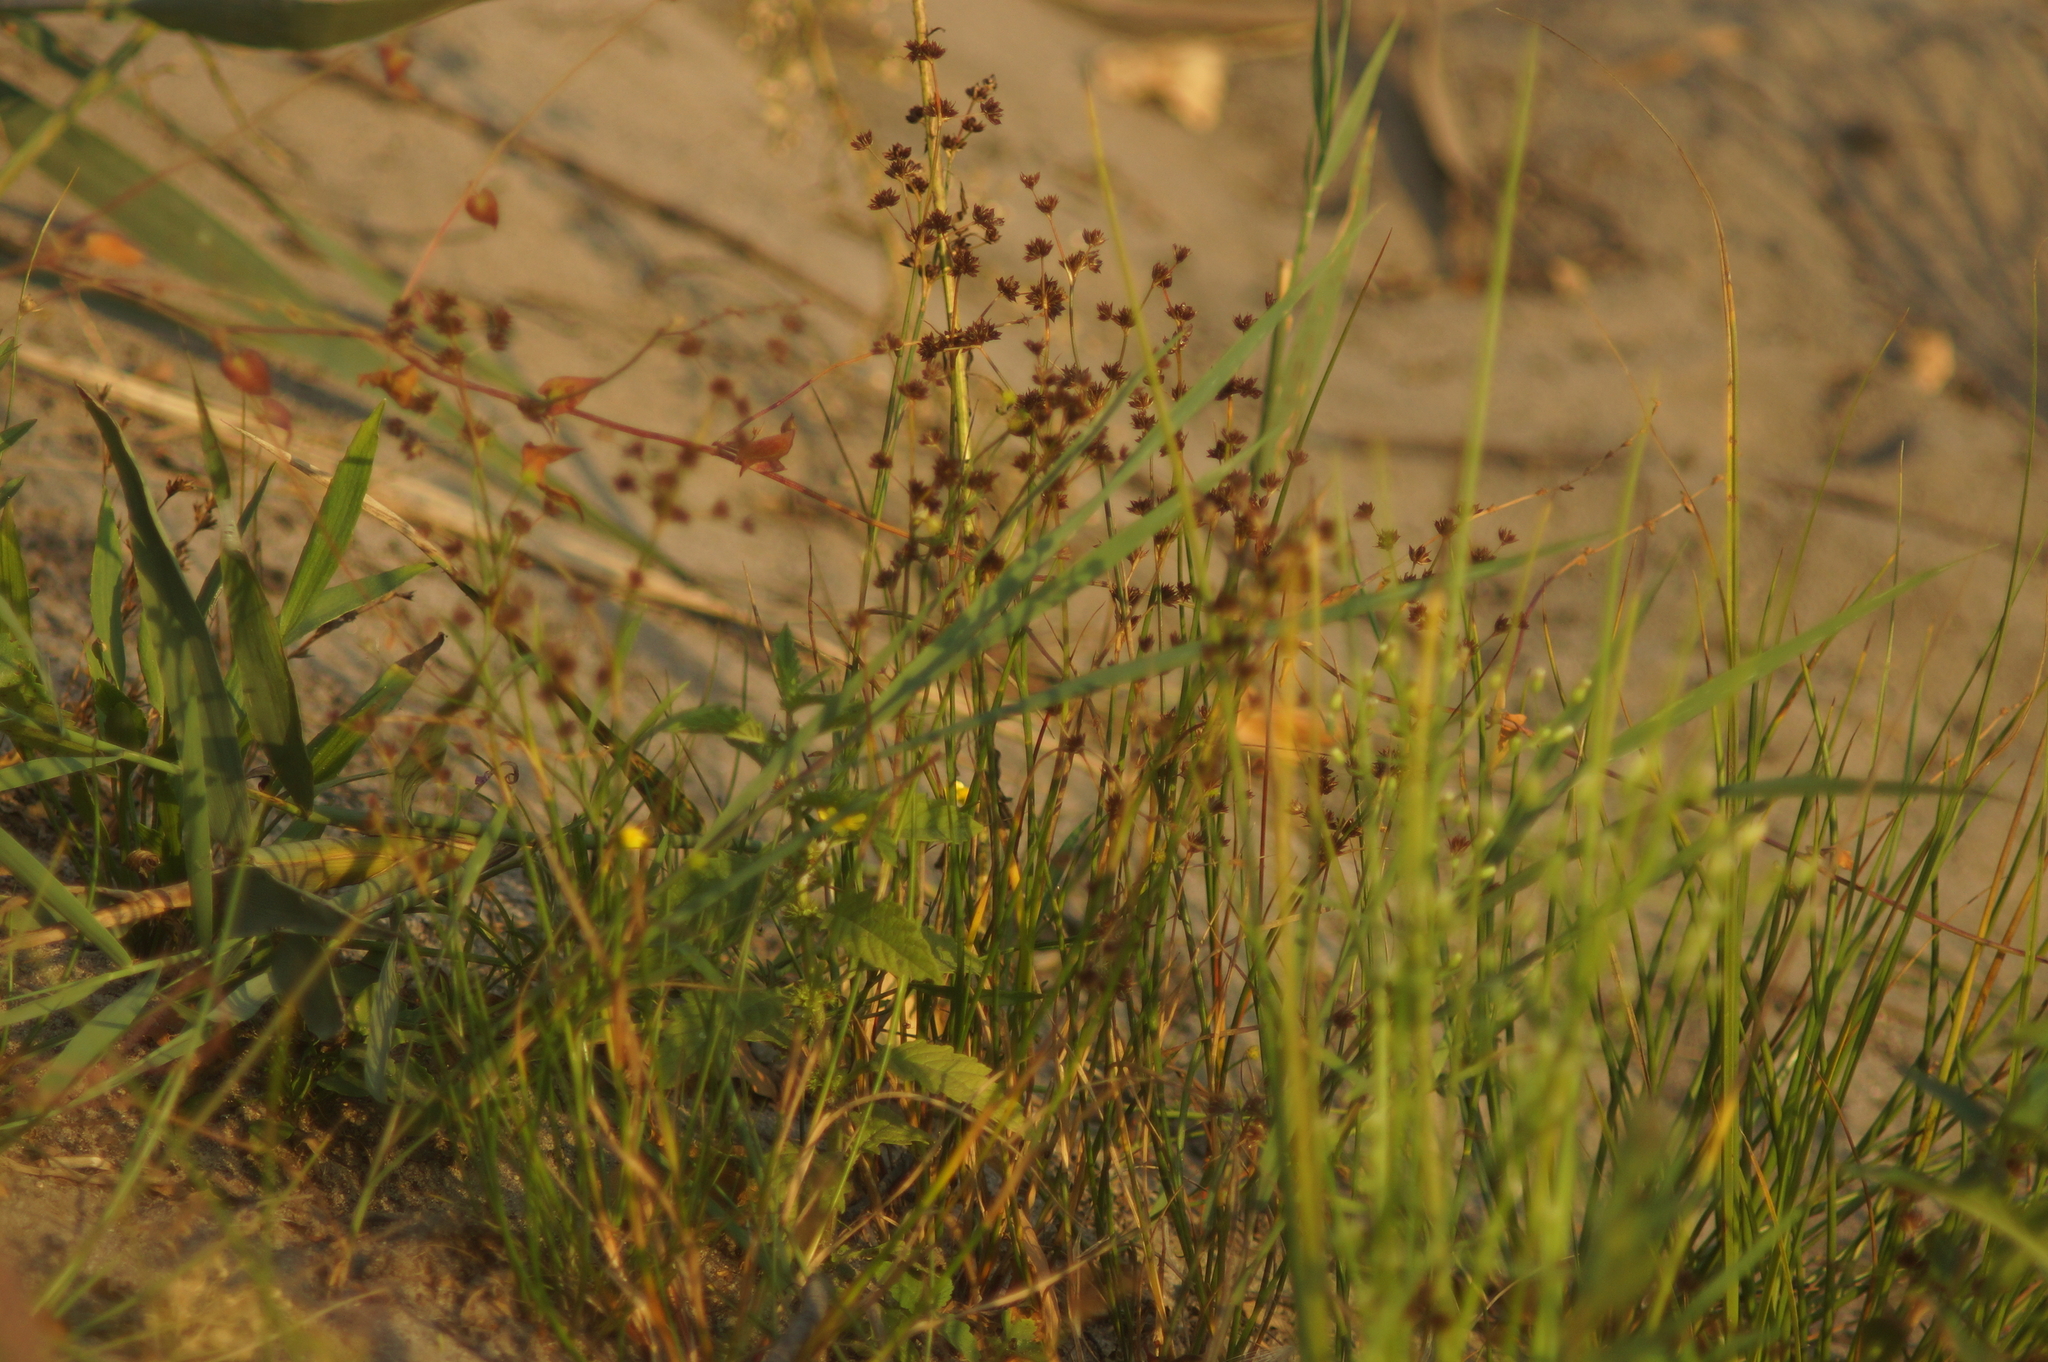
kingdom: Plantae
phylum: Tracheophyta
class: Liliopsida
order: Poales
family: Juncaceae
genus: Juncus
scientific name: Juncus articulatus
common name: Jointed rush
